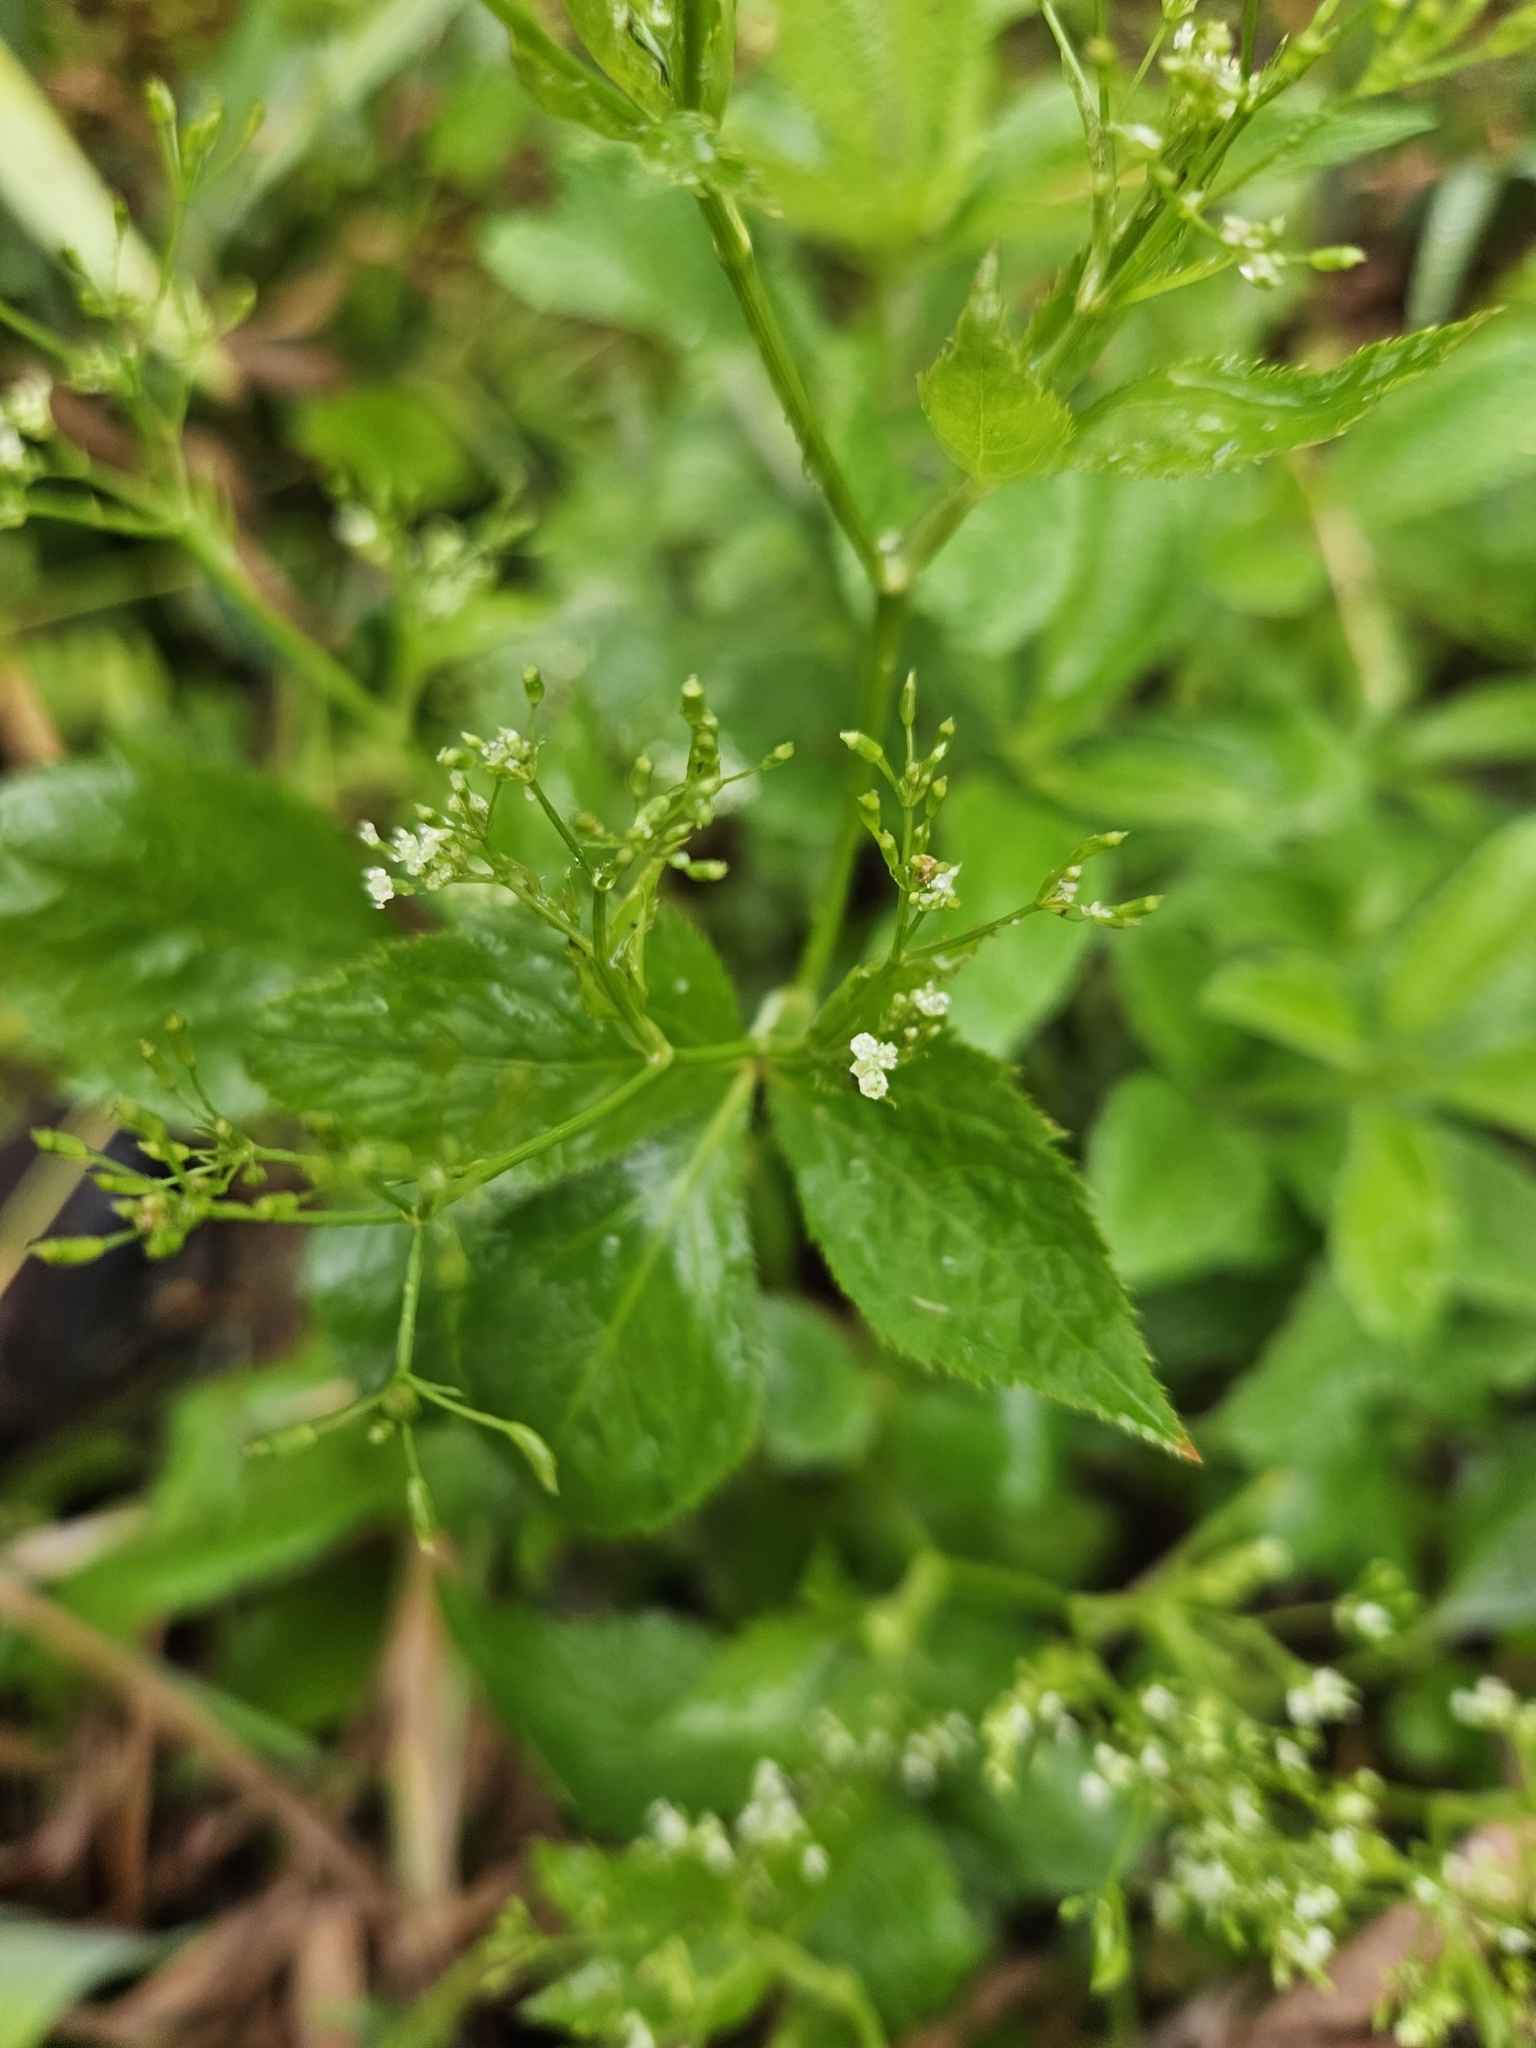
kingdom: Plantae
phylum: Tracheophyta
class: Magnoliopsida
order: Apiales
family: Apiaceae
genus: Cryptotaenia
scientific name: Cryptotaenia canadensis
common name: Honewort
